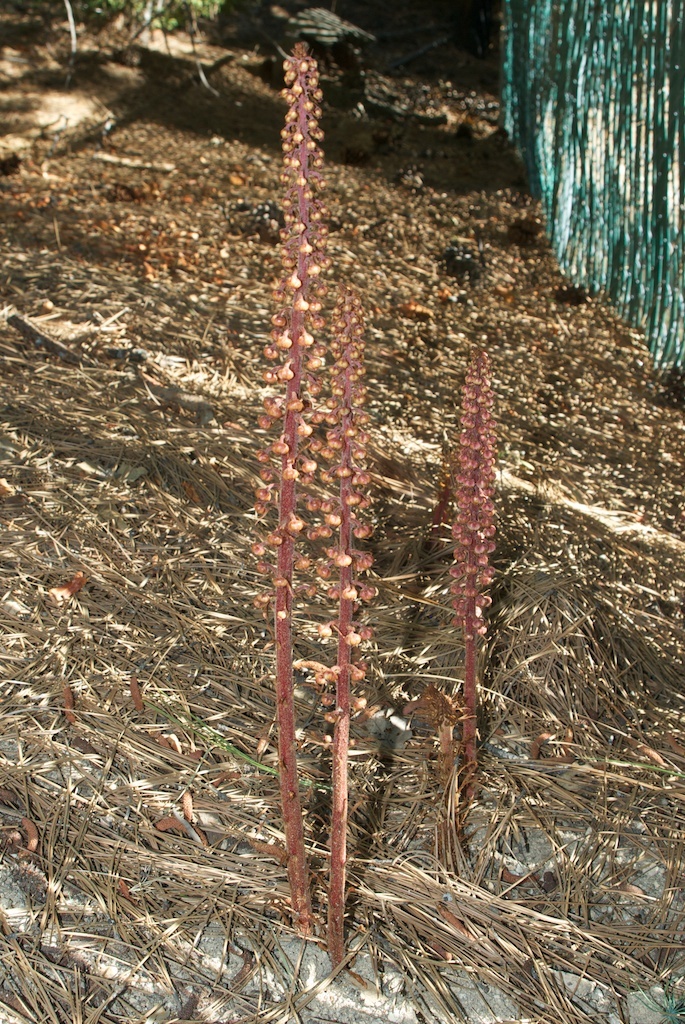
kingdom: Plantae
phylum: Tracheophyta
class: Magnoliopsida
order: Ericales
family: Ericaceae
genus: Pterospora
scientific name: Pterospora andromedea
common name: Giant bird's-nest
